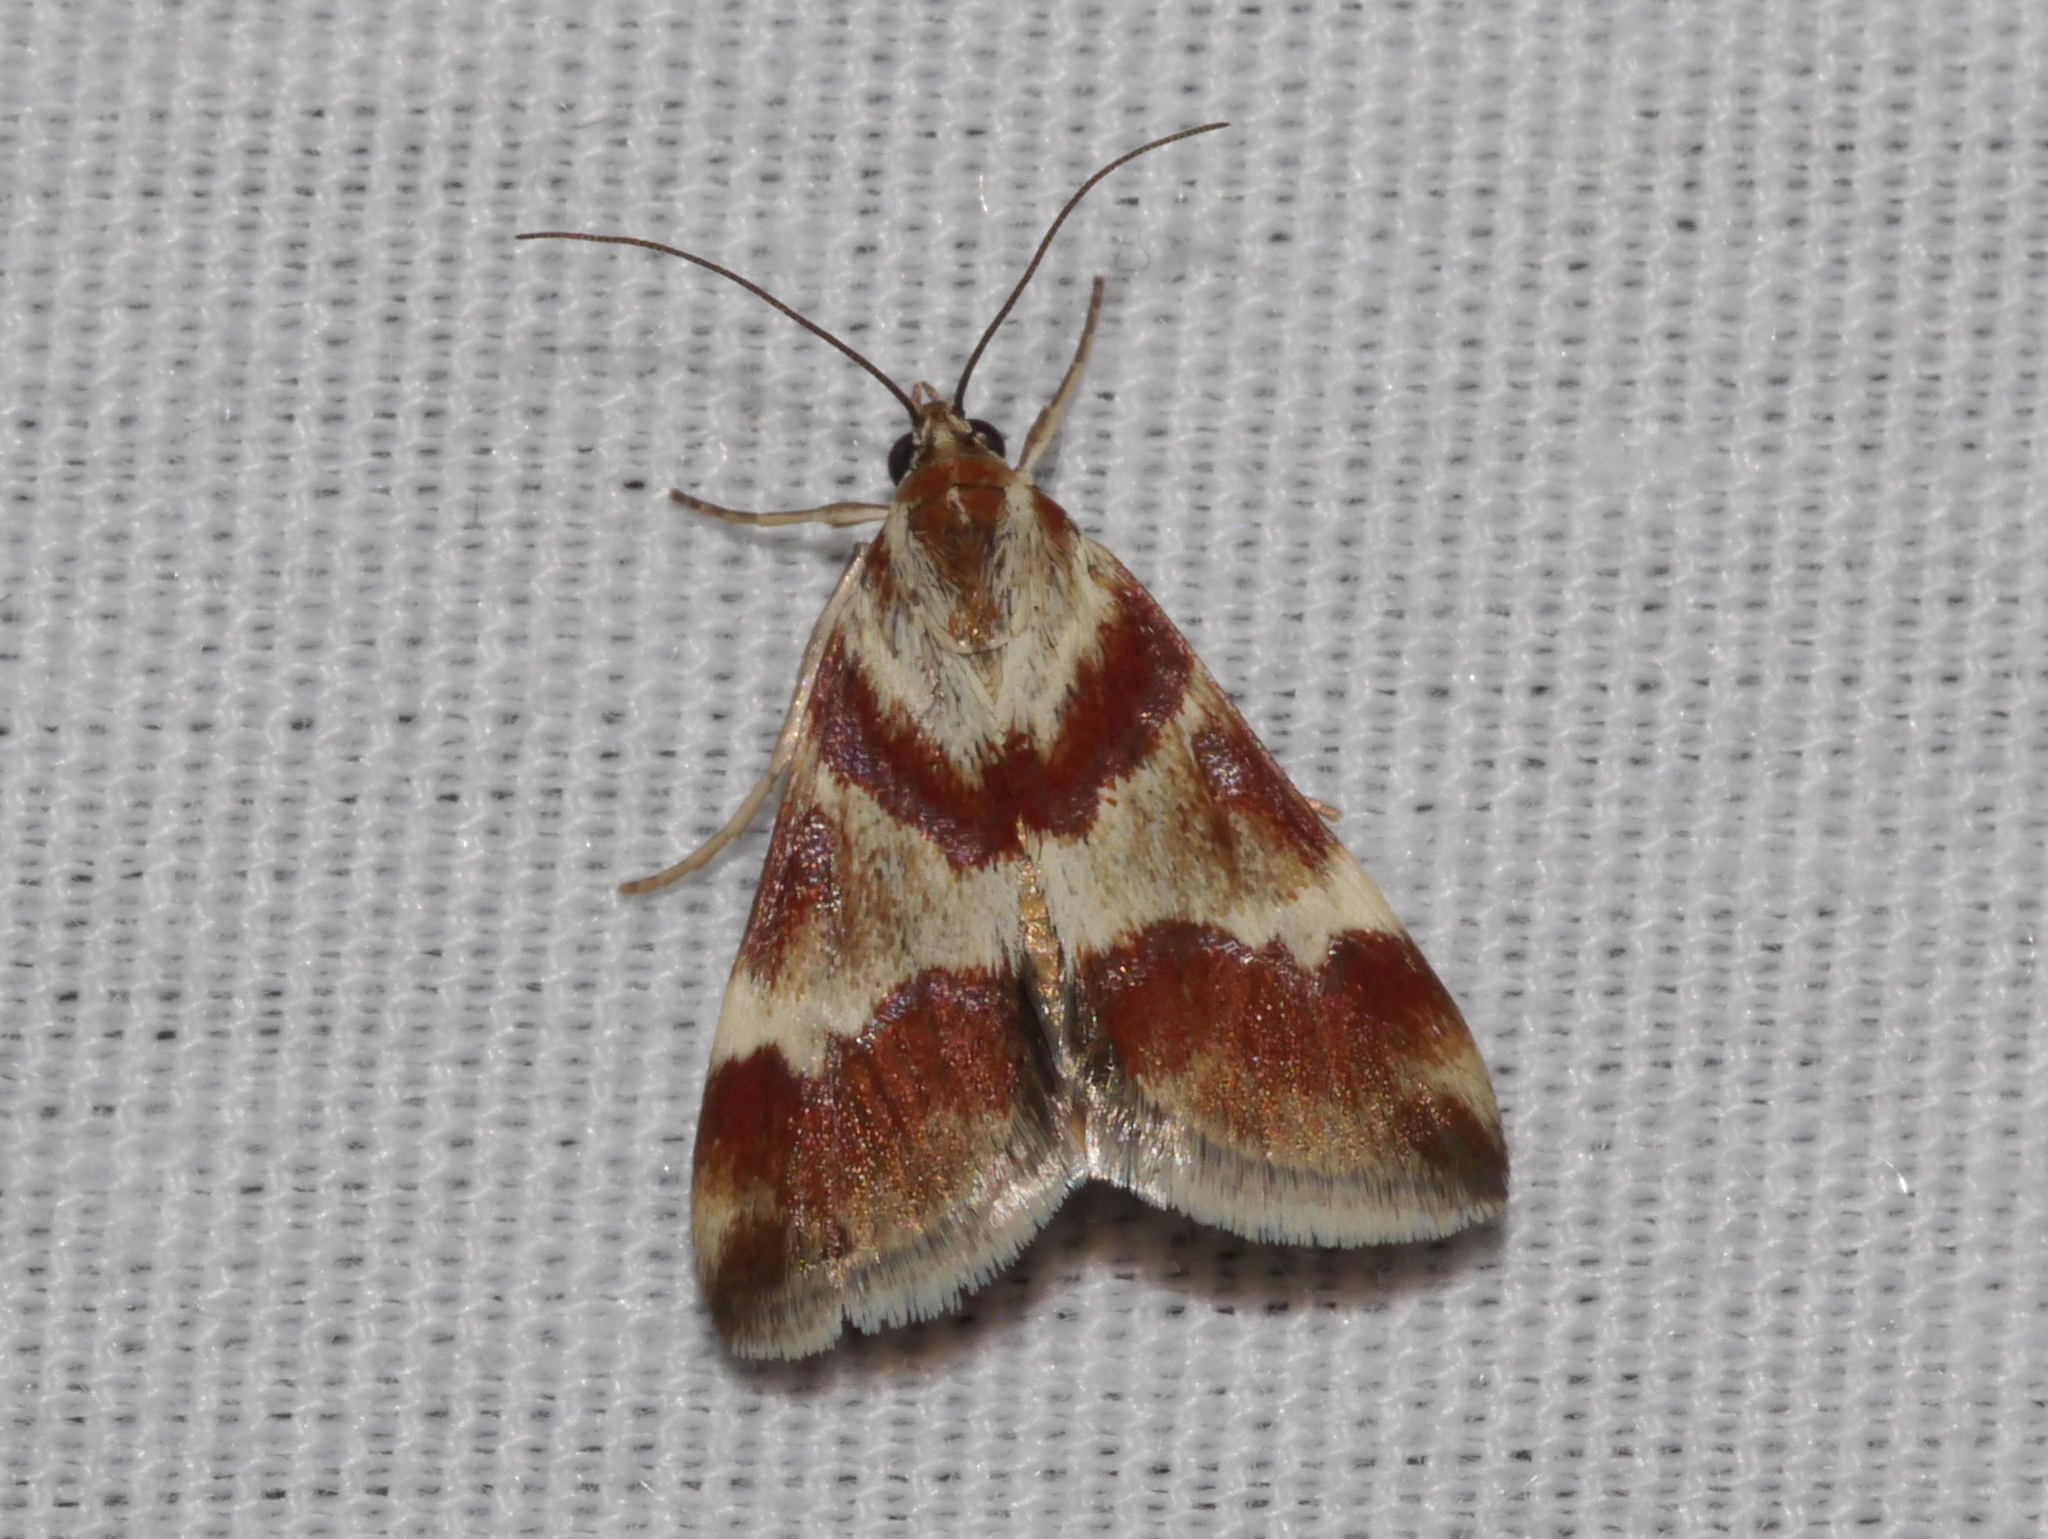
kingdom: Animalia
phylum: Arthropoda
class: Insecta
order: Lepidoptera
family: Crambidae
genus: Noctuelia
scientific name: Noctuelia Mimoschinia rufofascialis
